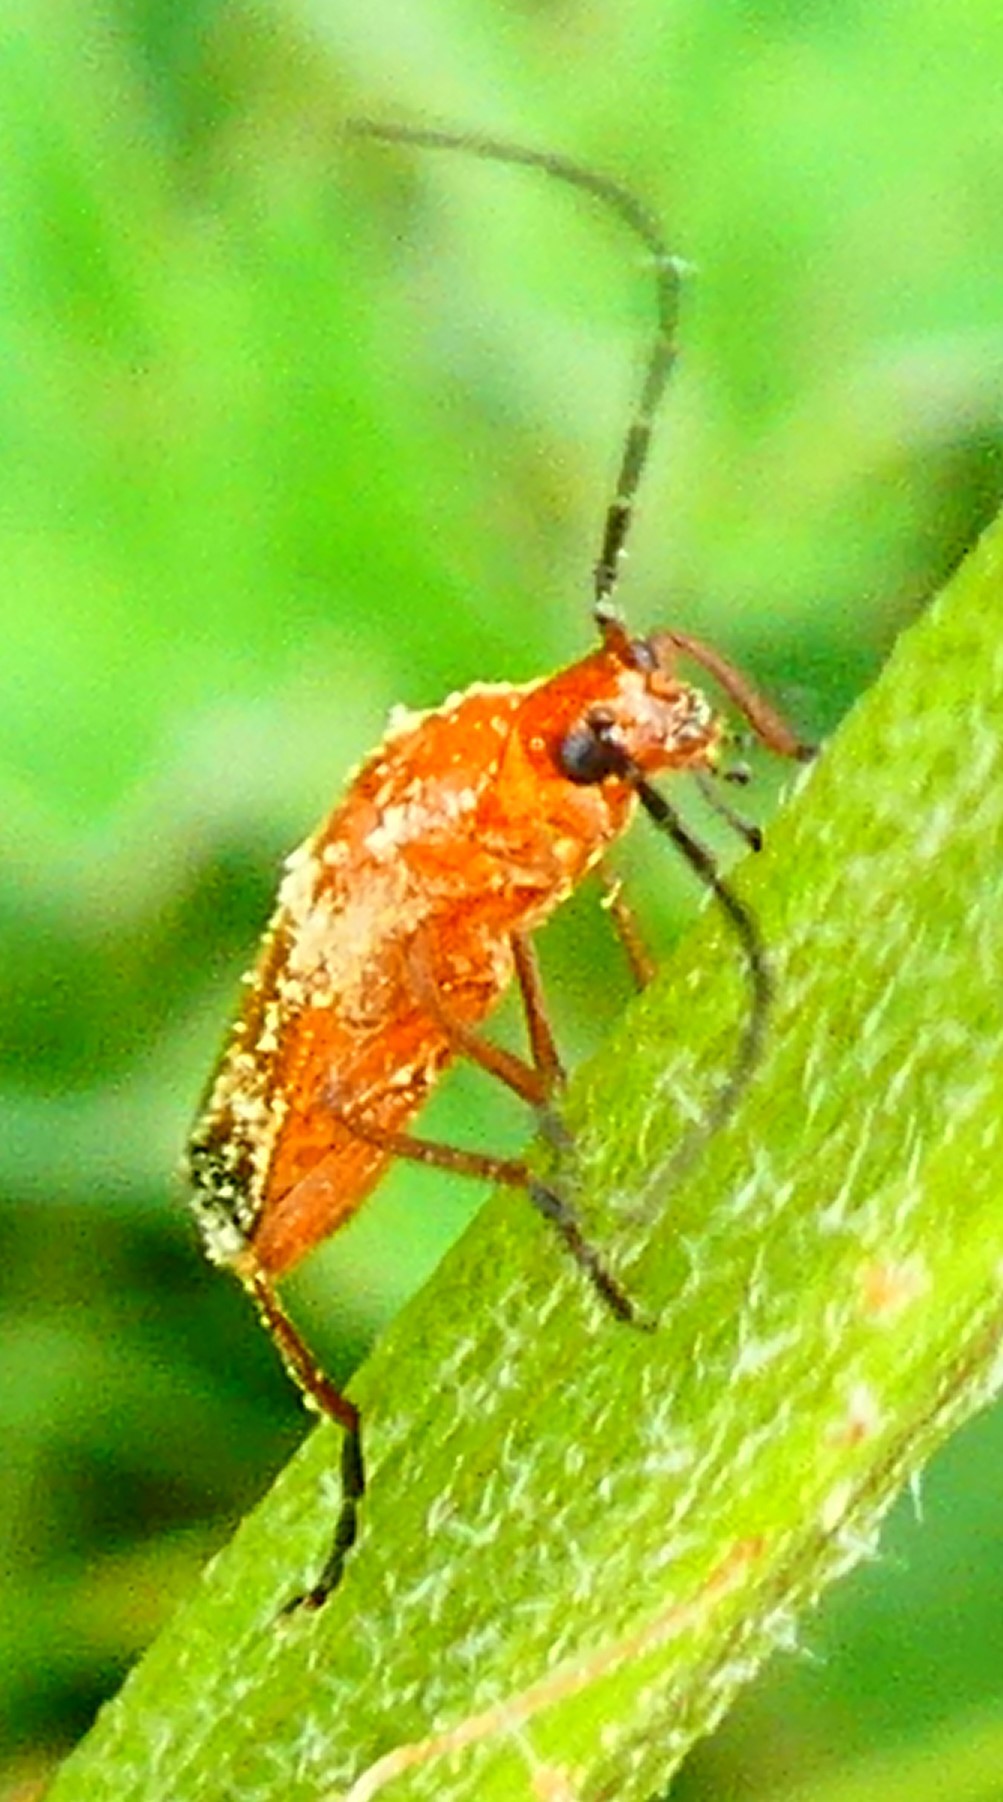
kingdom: Animalia
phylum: Arthropoda
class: Insecta
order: Coleoptera
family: Cantharidae
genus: Rhagonycha
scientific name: Rhagonycha fulva
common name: Common red soldier beetle
